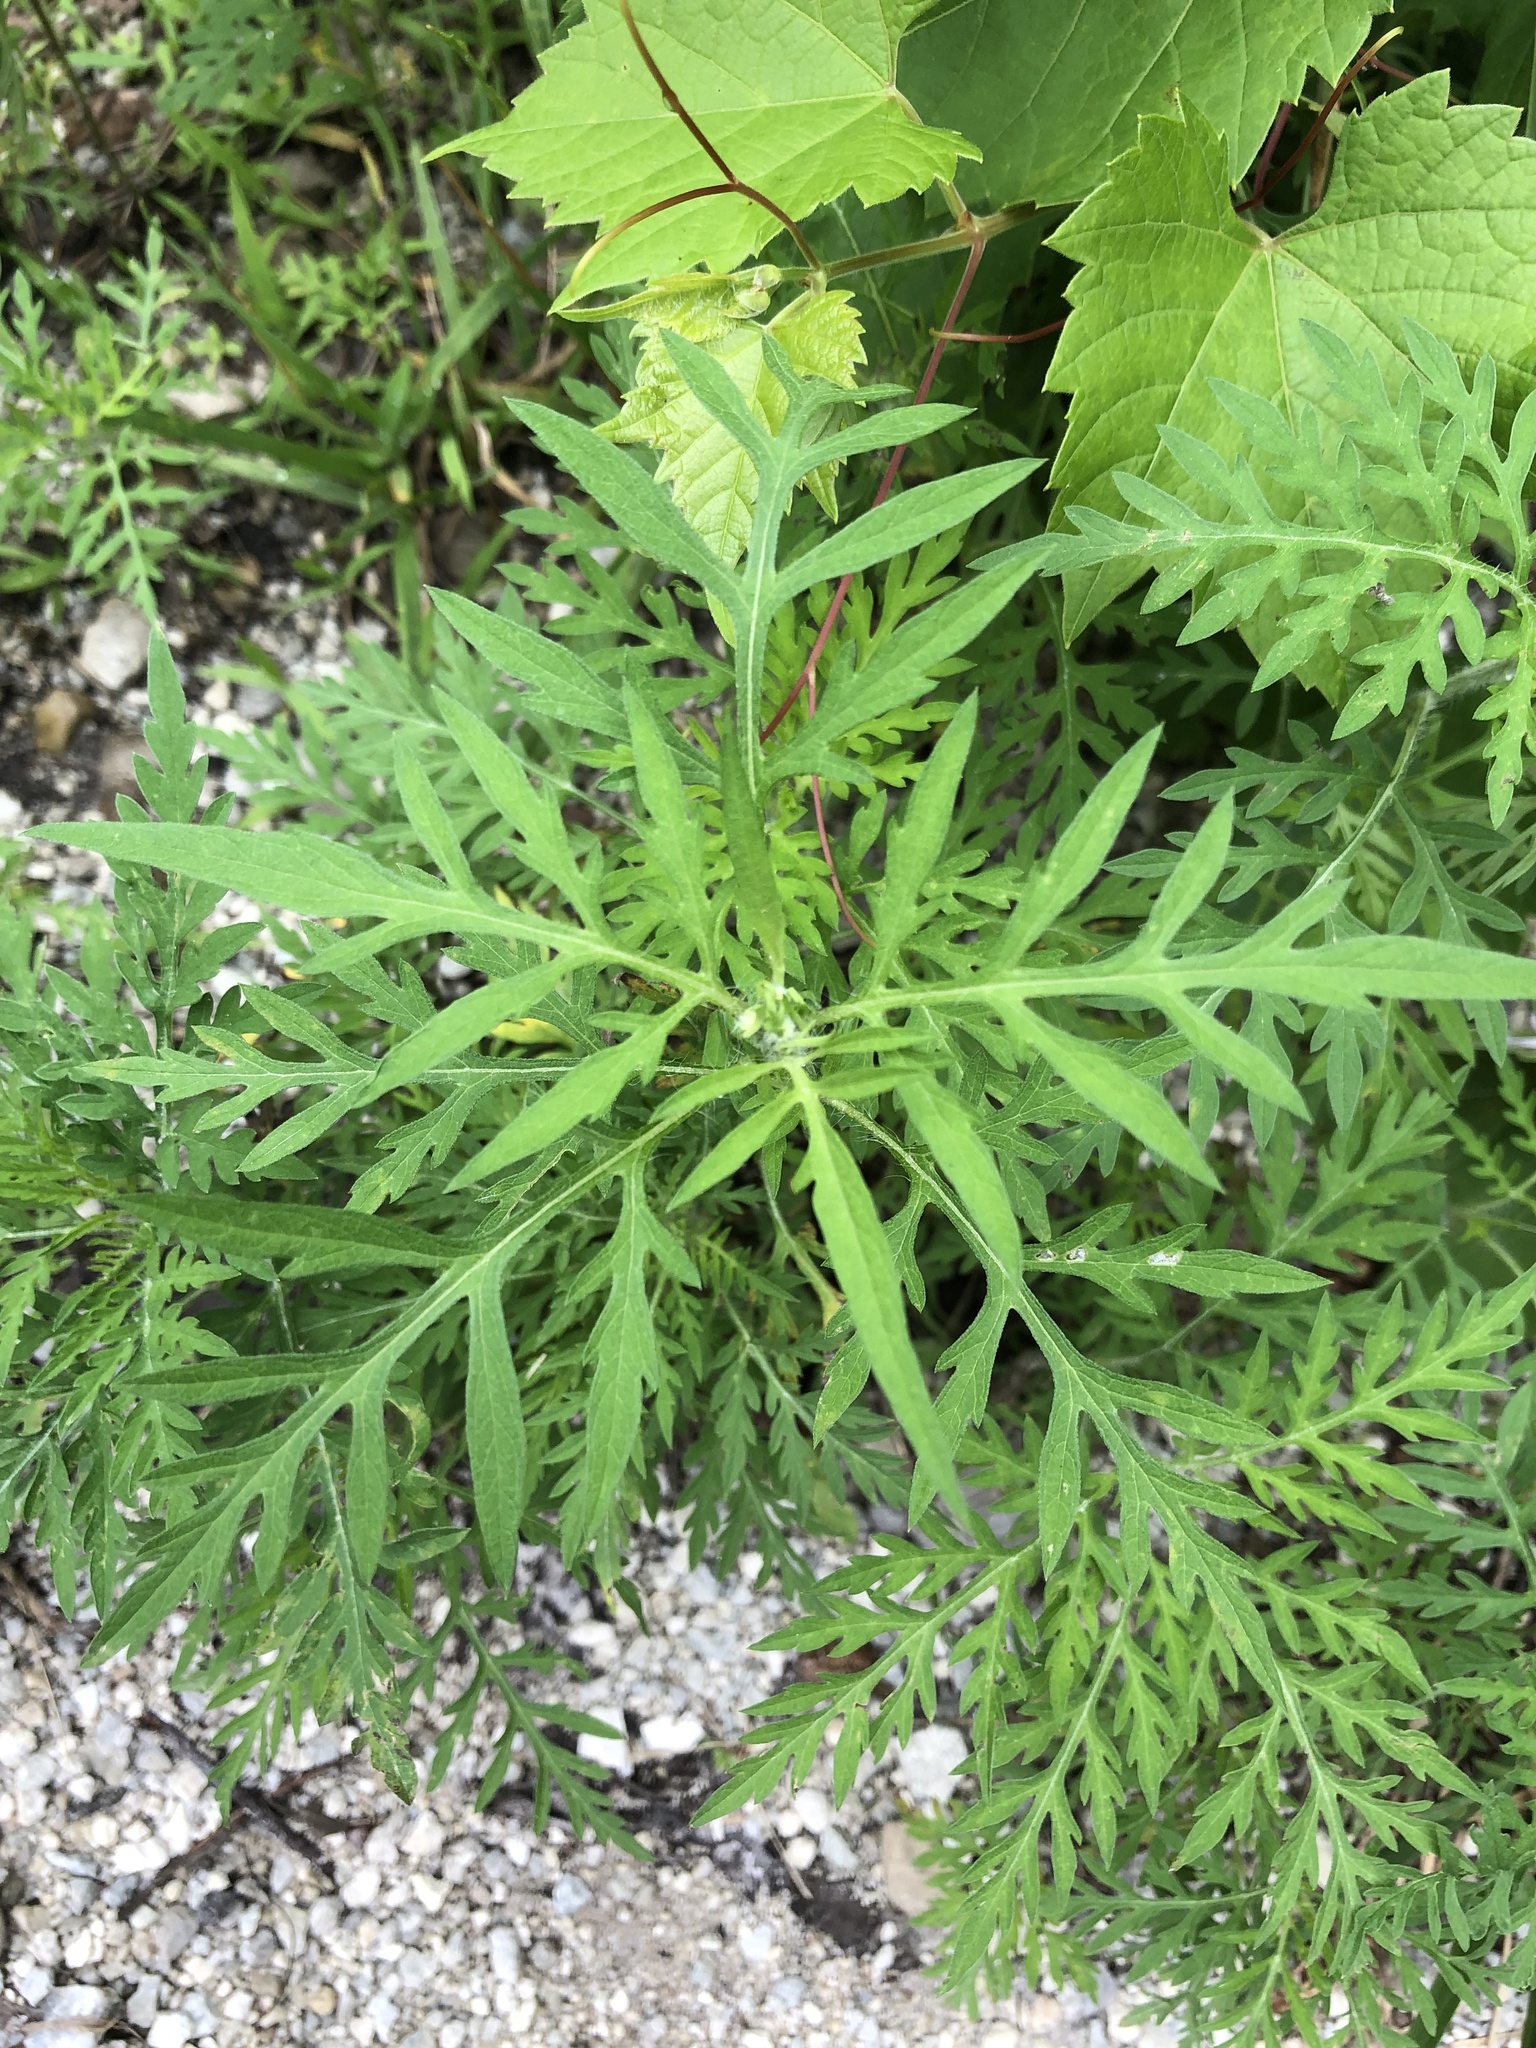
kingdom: Plantae
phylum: Tracheophyta
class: Magnoliopsida
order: Asterales
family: Asteraceae
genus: Ambrosia
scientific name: Ambrosia artemisiifolia
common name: Annual ragweed
